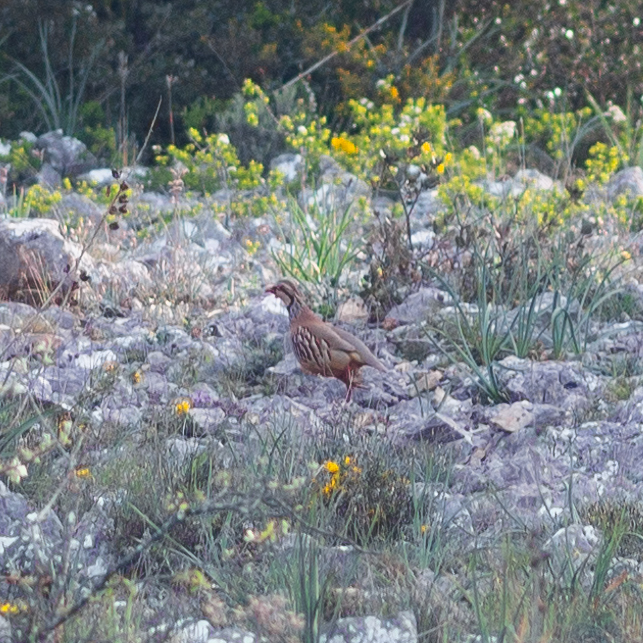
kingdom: Animalia
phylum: Chordata
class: Aves
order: Galliformes
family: Phasianidae
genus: Alectoris
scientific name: Alectoris rufa
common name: Red-legged partridge
